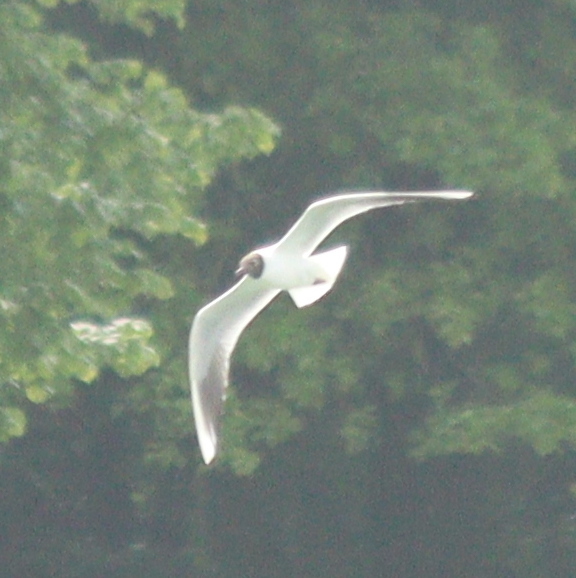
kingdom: Animalia
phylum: Chordata
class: Aves
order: Charadriiformes
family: Laridae
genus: Chroicocephalus
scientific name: Chroicocephalus ridibundus
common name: Black-headed gull
